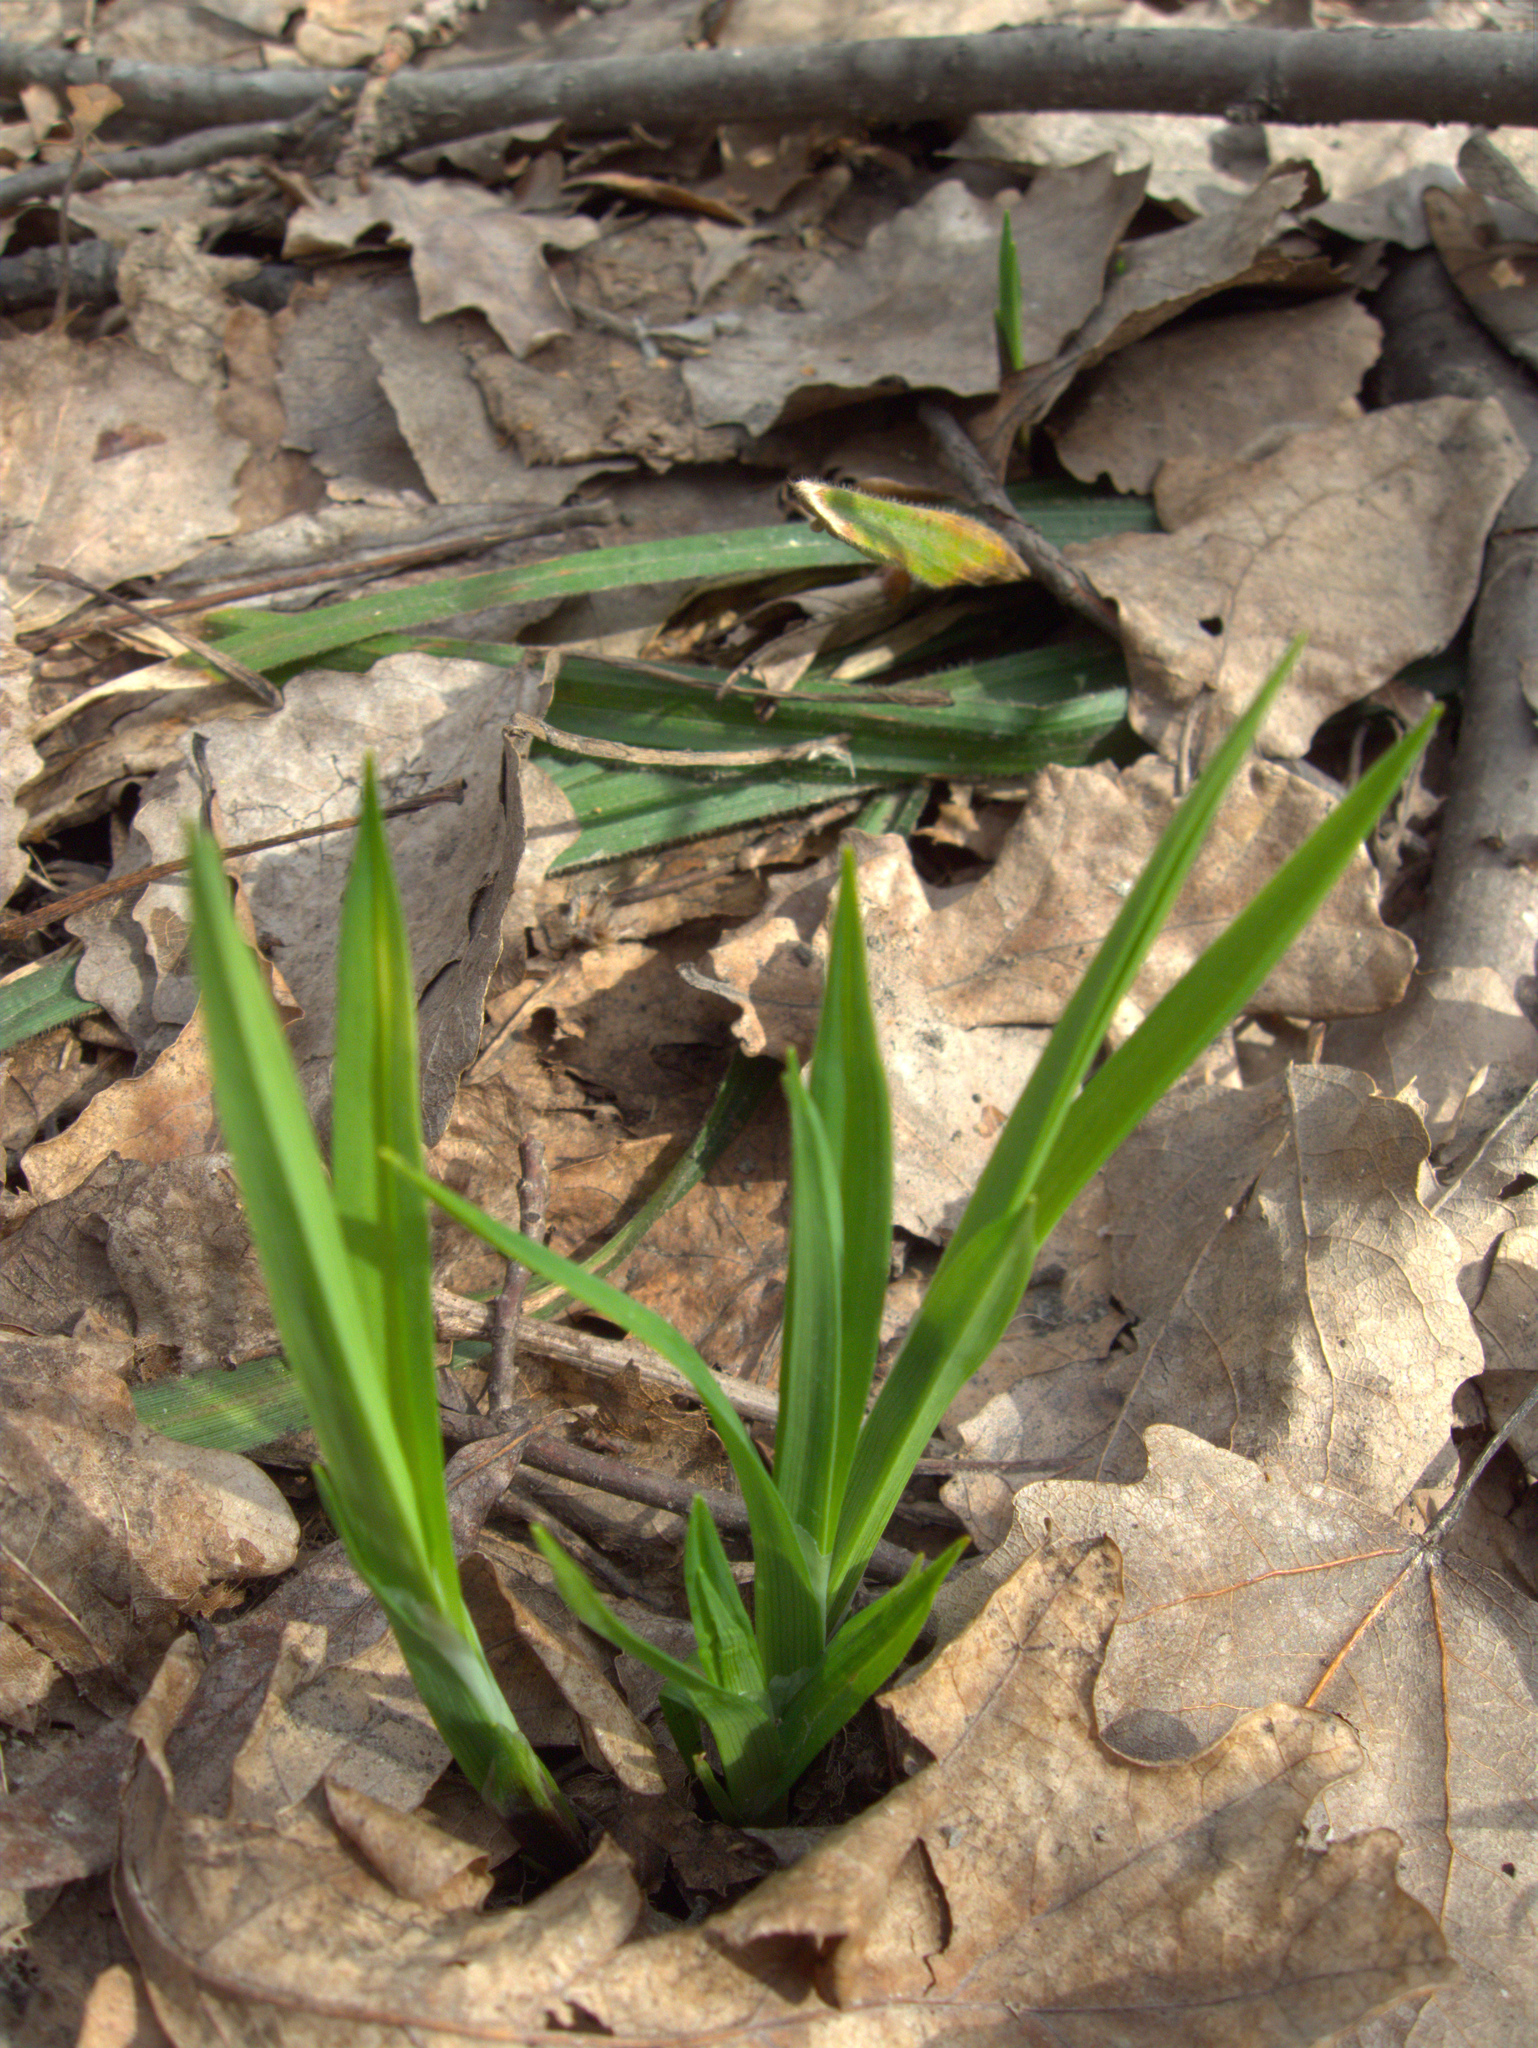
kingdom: Plantae
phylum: Tracheophyta
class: Liliopsida
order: Poales
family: Cyperaceae
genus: Carex
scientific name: Carex pilosa
